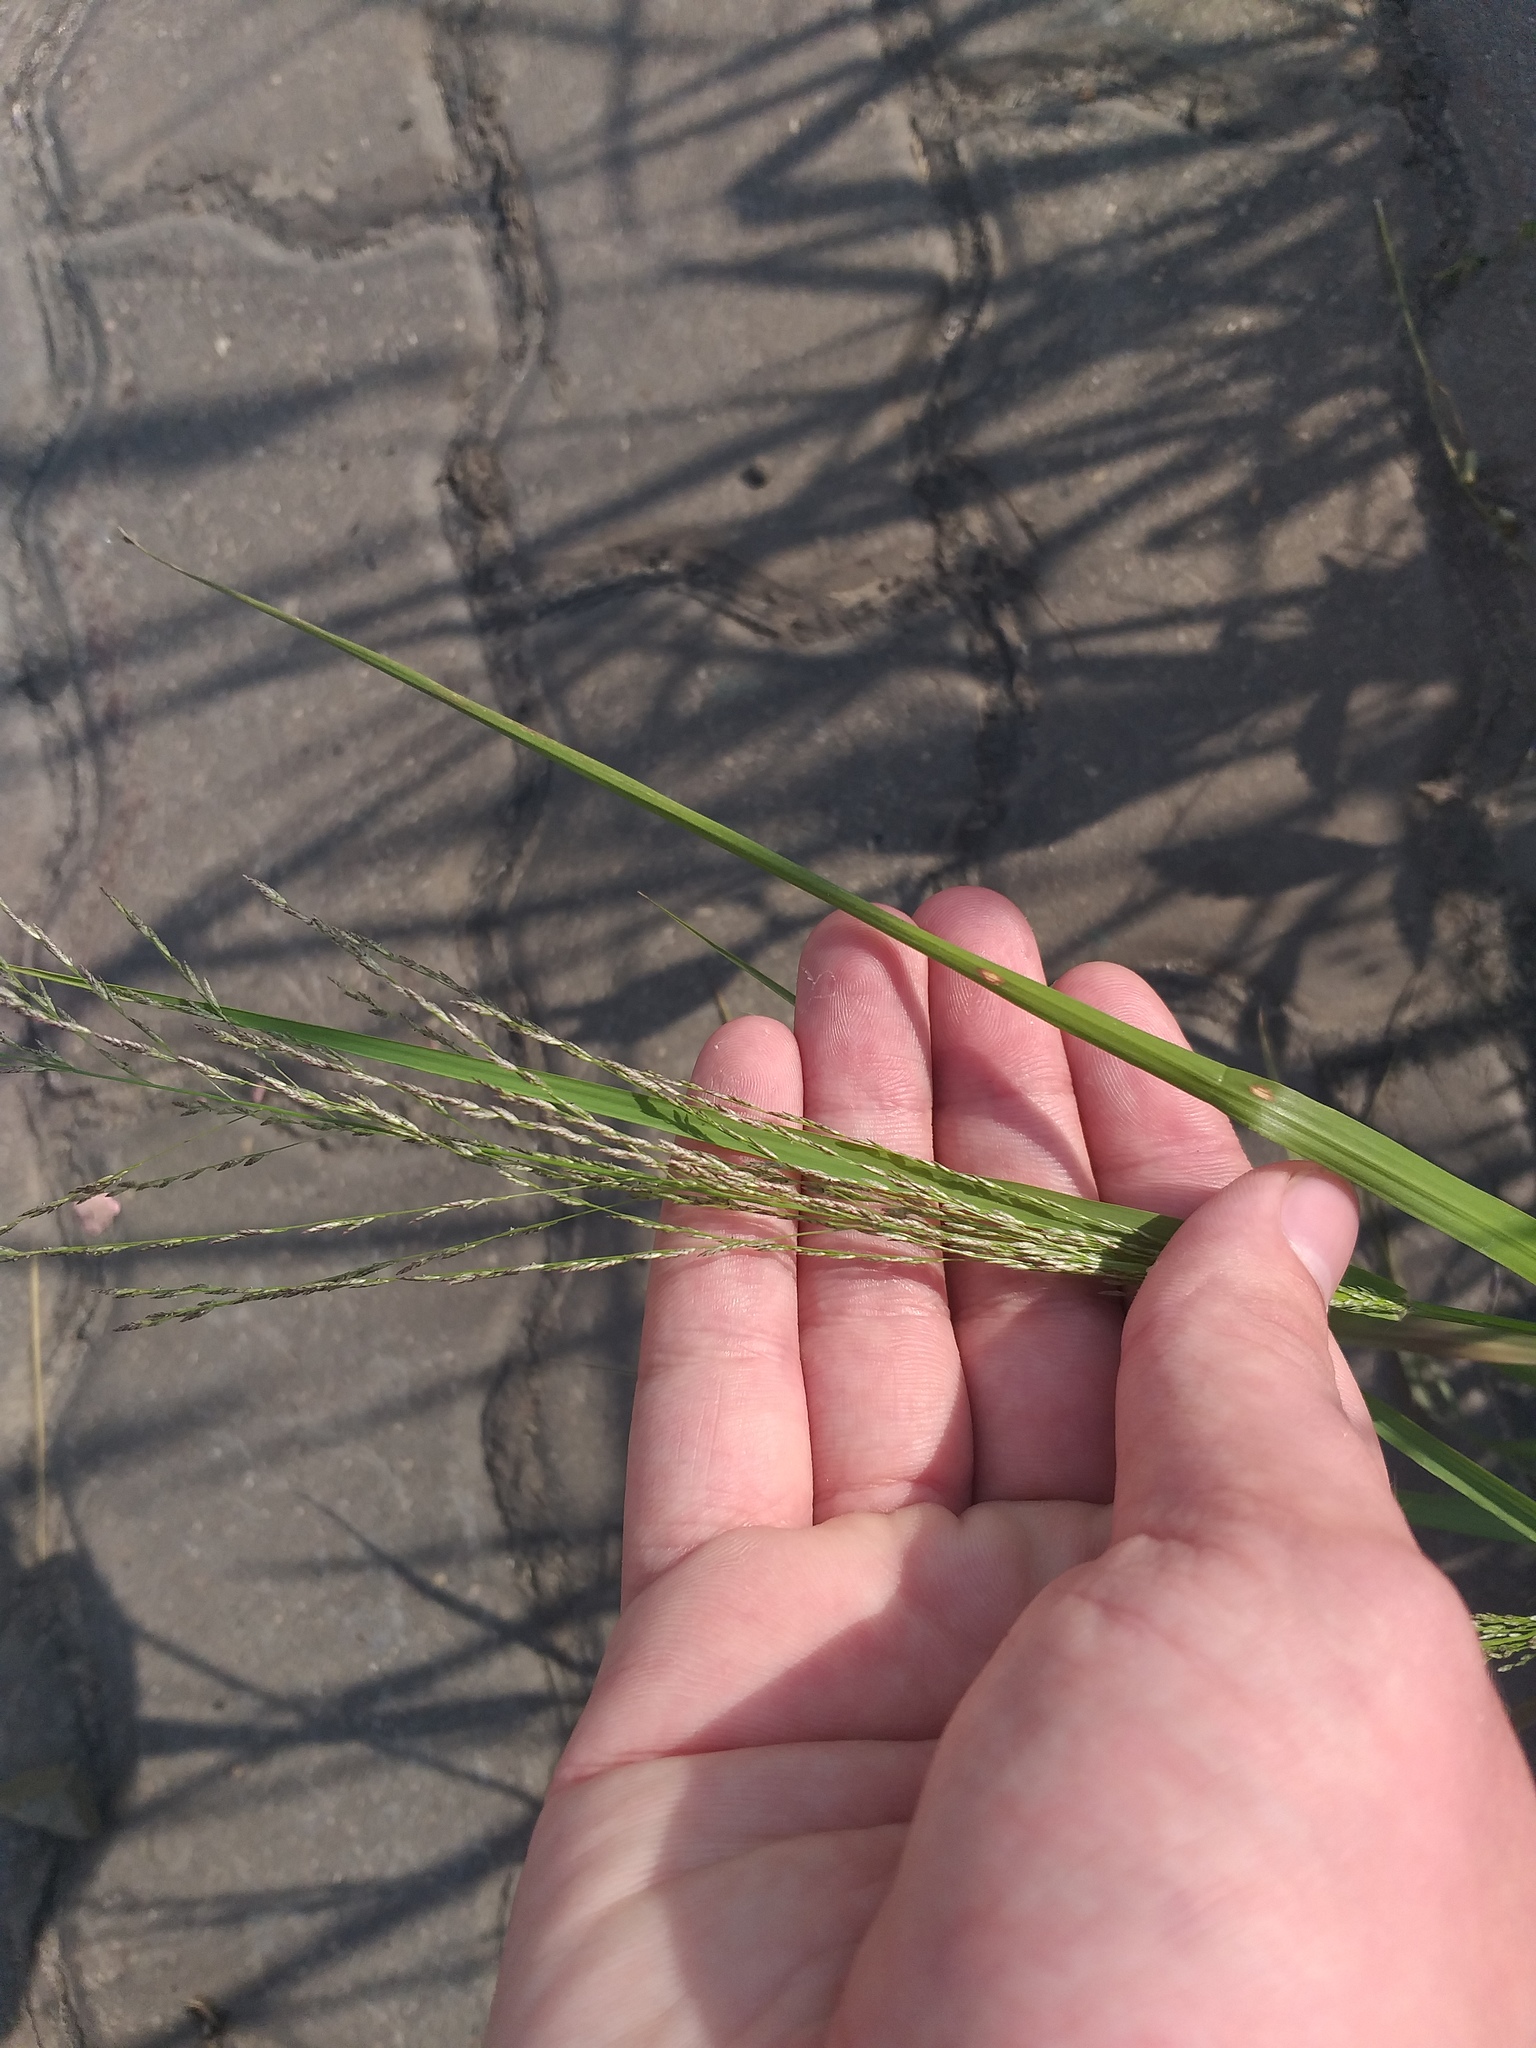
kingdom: Plantae
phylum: Tracheophyta
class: Liliopsida
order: Poales
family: Poaceae
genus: Eragrostis
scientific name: Eragrostis pilosa
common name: Indian lovegrass
